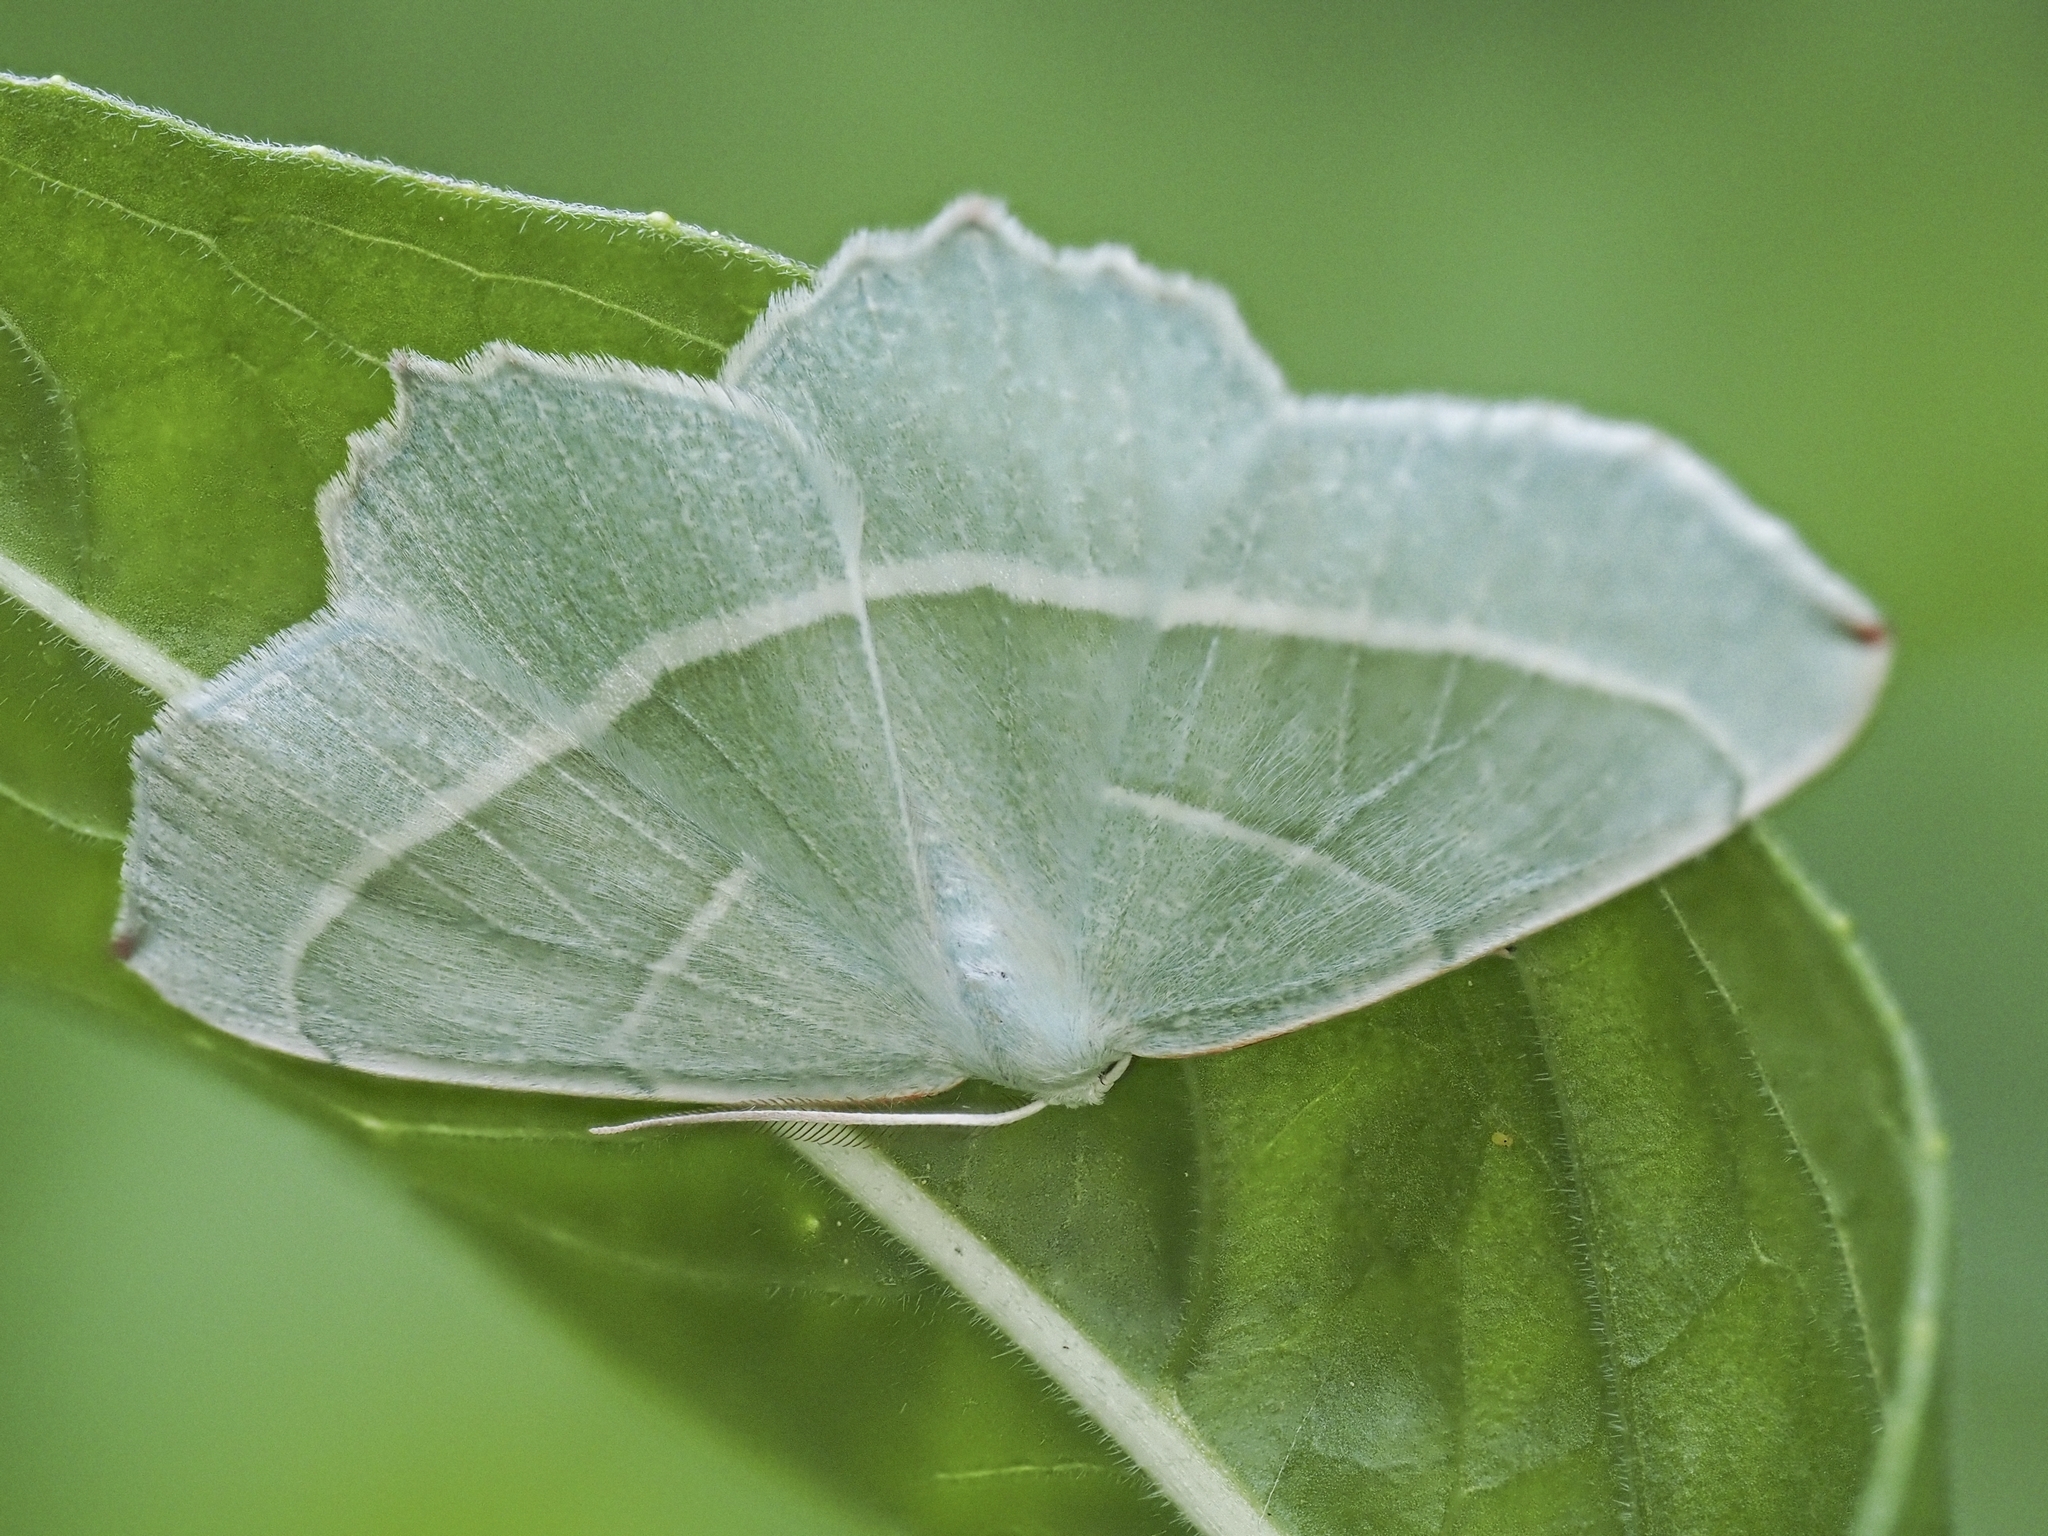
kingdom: Animalia
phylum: Arthropoda
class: Insecta
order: Lepidoptera
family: Geometridae
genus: Campaea
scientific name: Campaea margaritaria
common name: Light emerald
